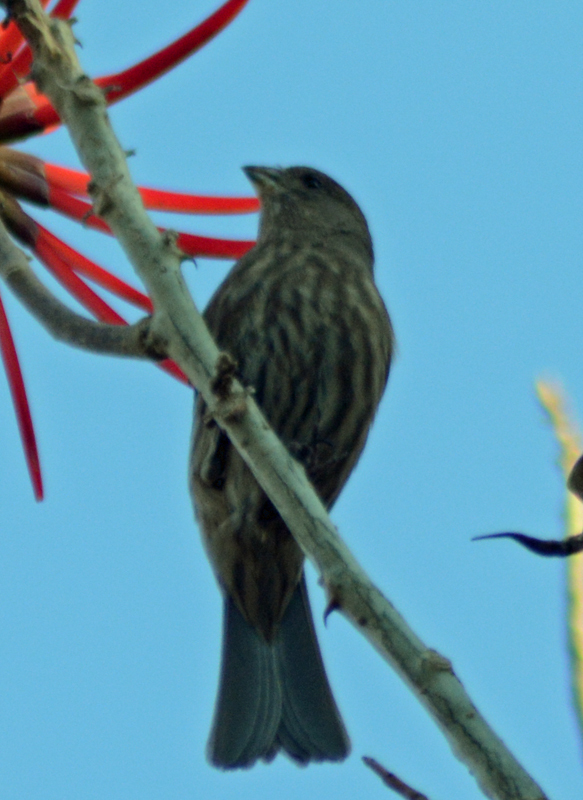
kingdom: Animalia
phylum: Chordata
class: Aves
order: Passeriformes
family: Fringillidae
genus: Haemorhous
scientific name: Haemorhous mexicanus
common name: House finch
